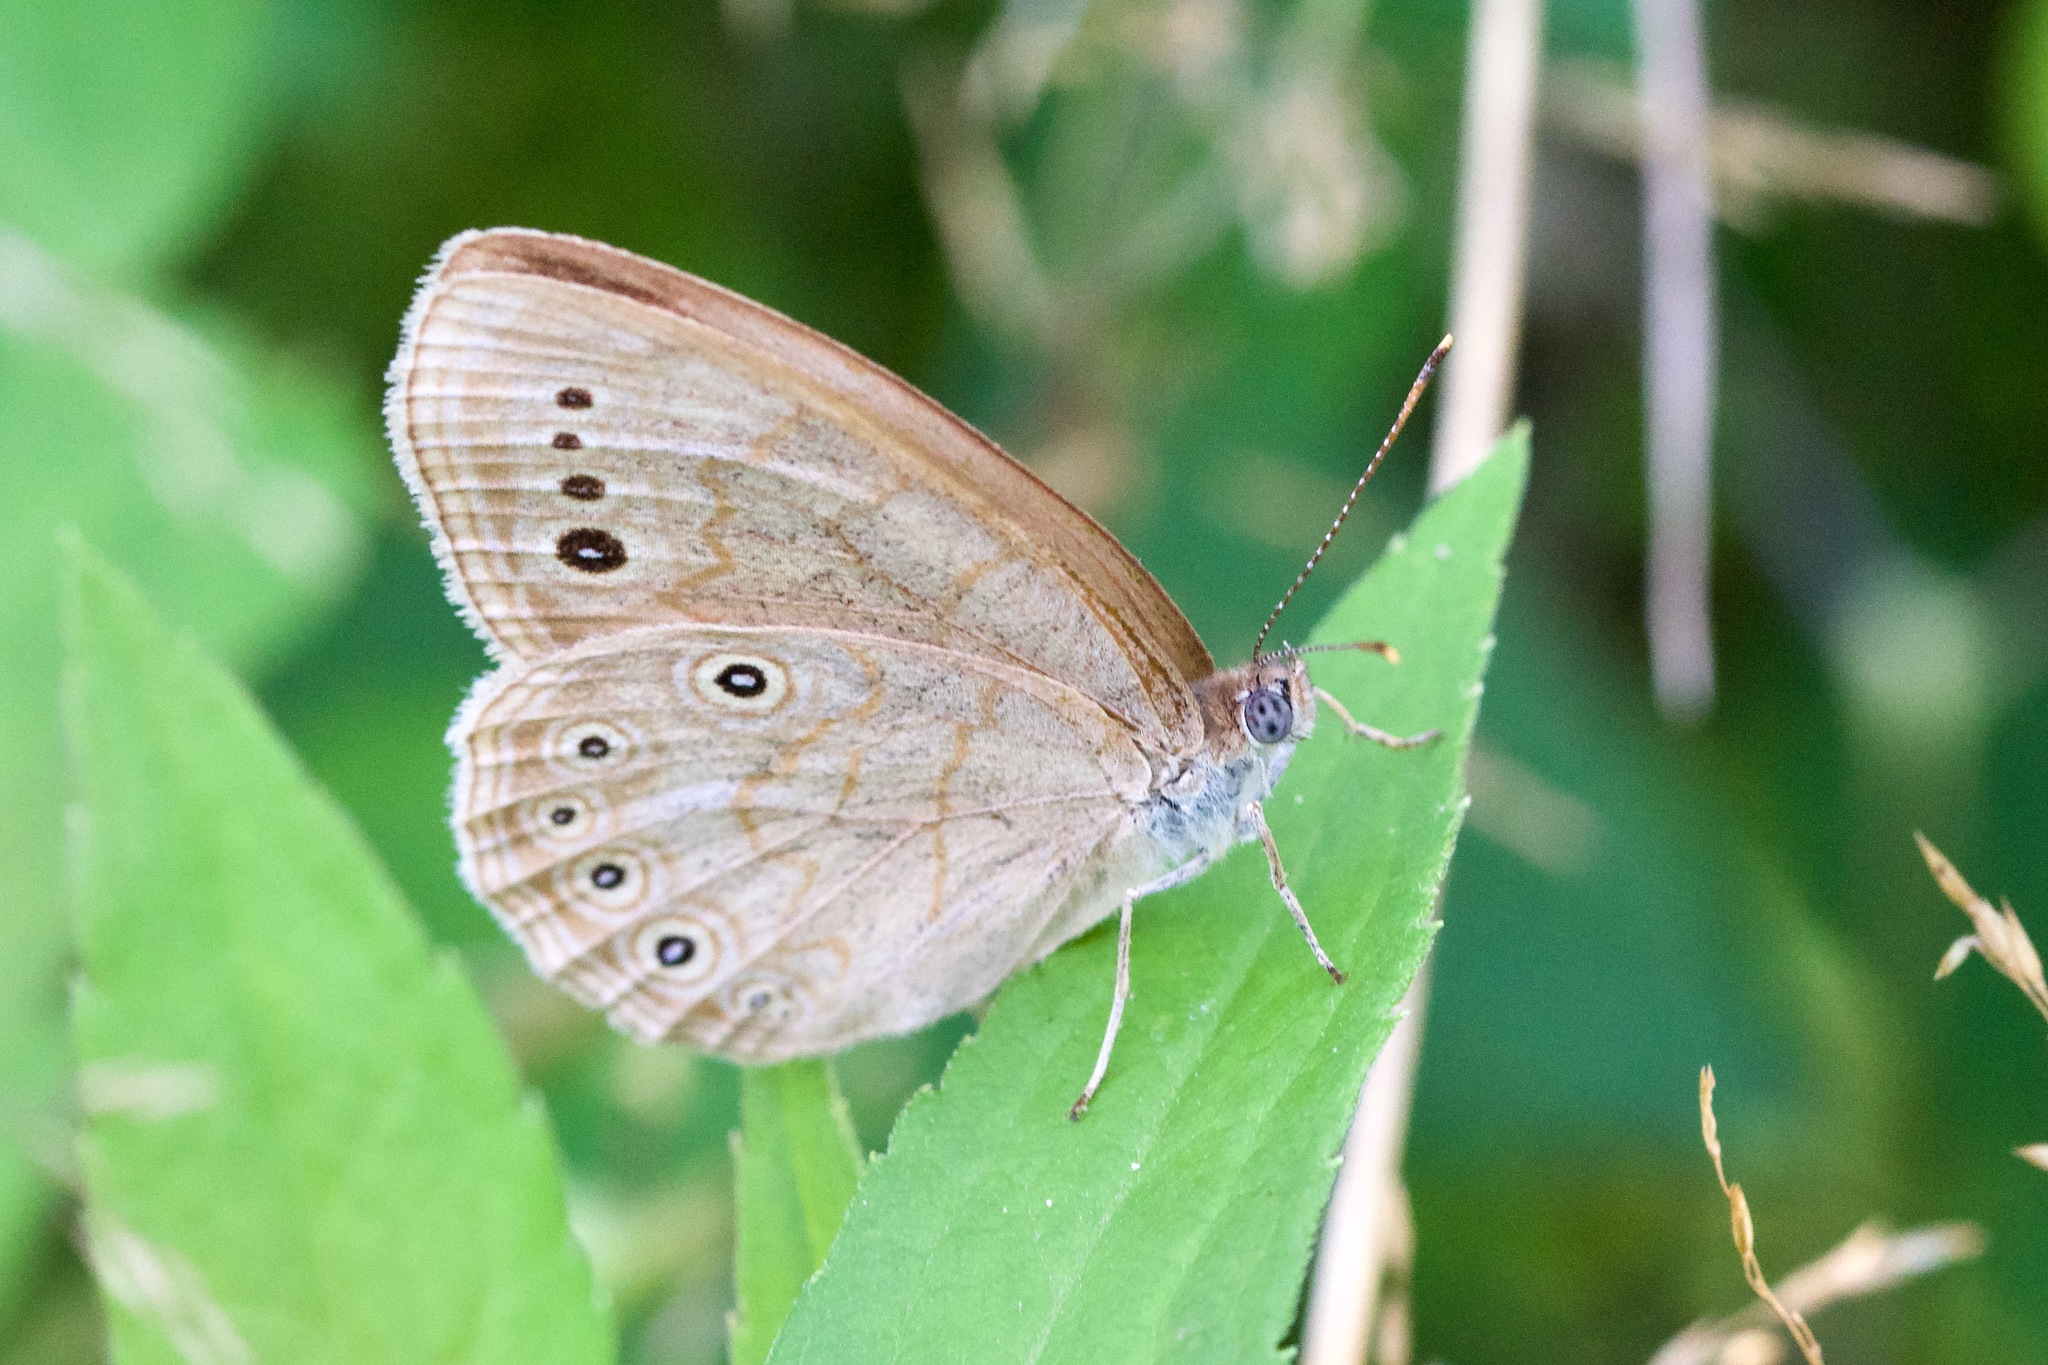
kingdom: Animalia
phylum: Arthropoda
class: Insecta
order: Lepidoptera
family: Nymphalidae
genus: Lethe
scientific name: Lethe eurydice
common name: Eyed brown
